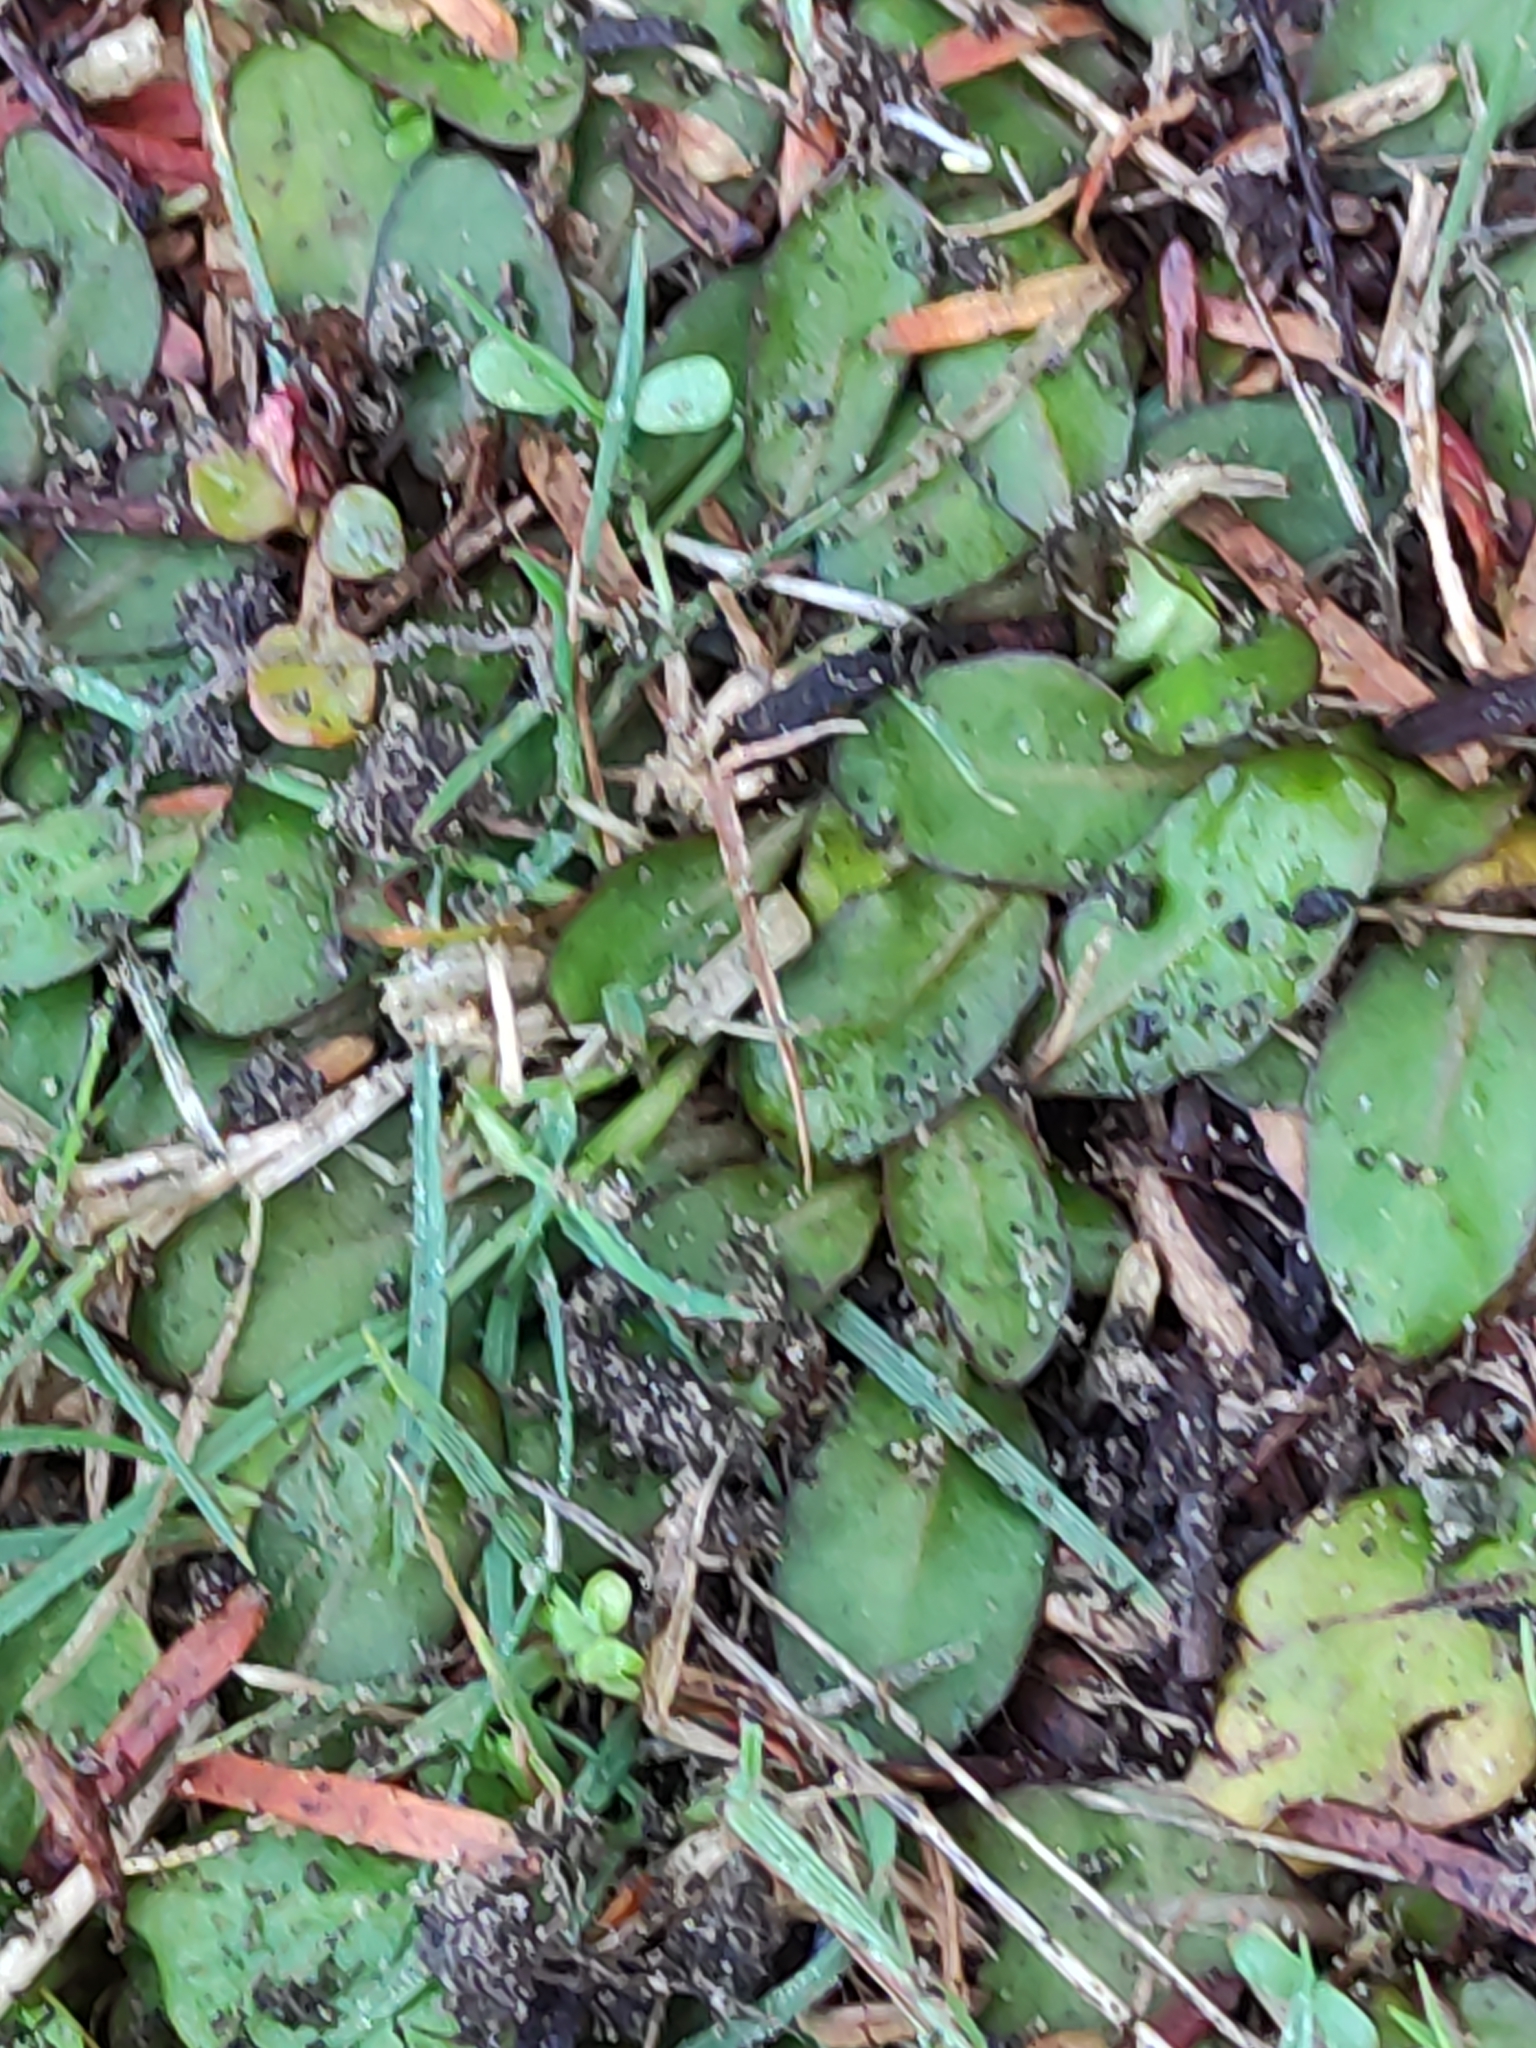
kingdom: Plantae
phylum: Tracheophyta
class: Magnoliopsida
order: Lamiales
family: Mazaceae
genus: Mazus
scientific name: Mazus novaezeelandiae
